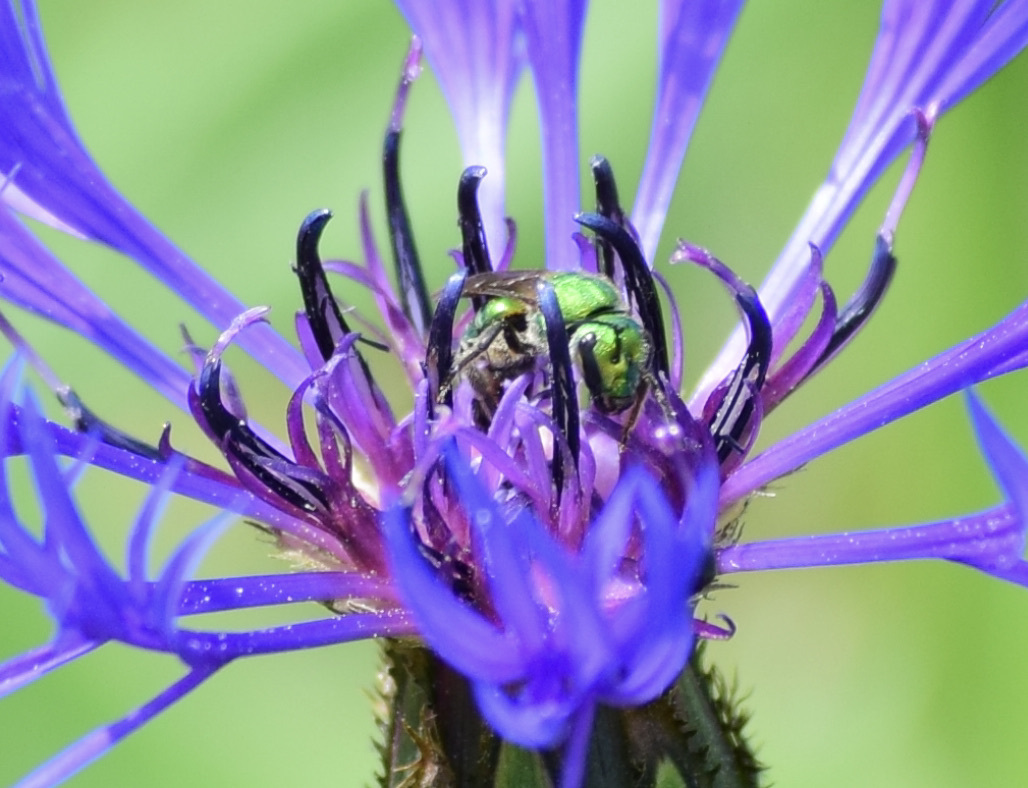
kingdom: Animalia
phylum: Arthropoda
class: Insecta
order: Hymenoptera
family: Halictidae
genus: Augochlora
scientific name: Augochlora pura
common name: Pure green sweat bee
